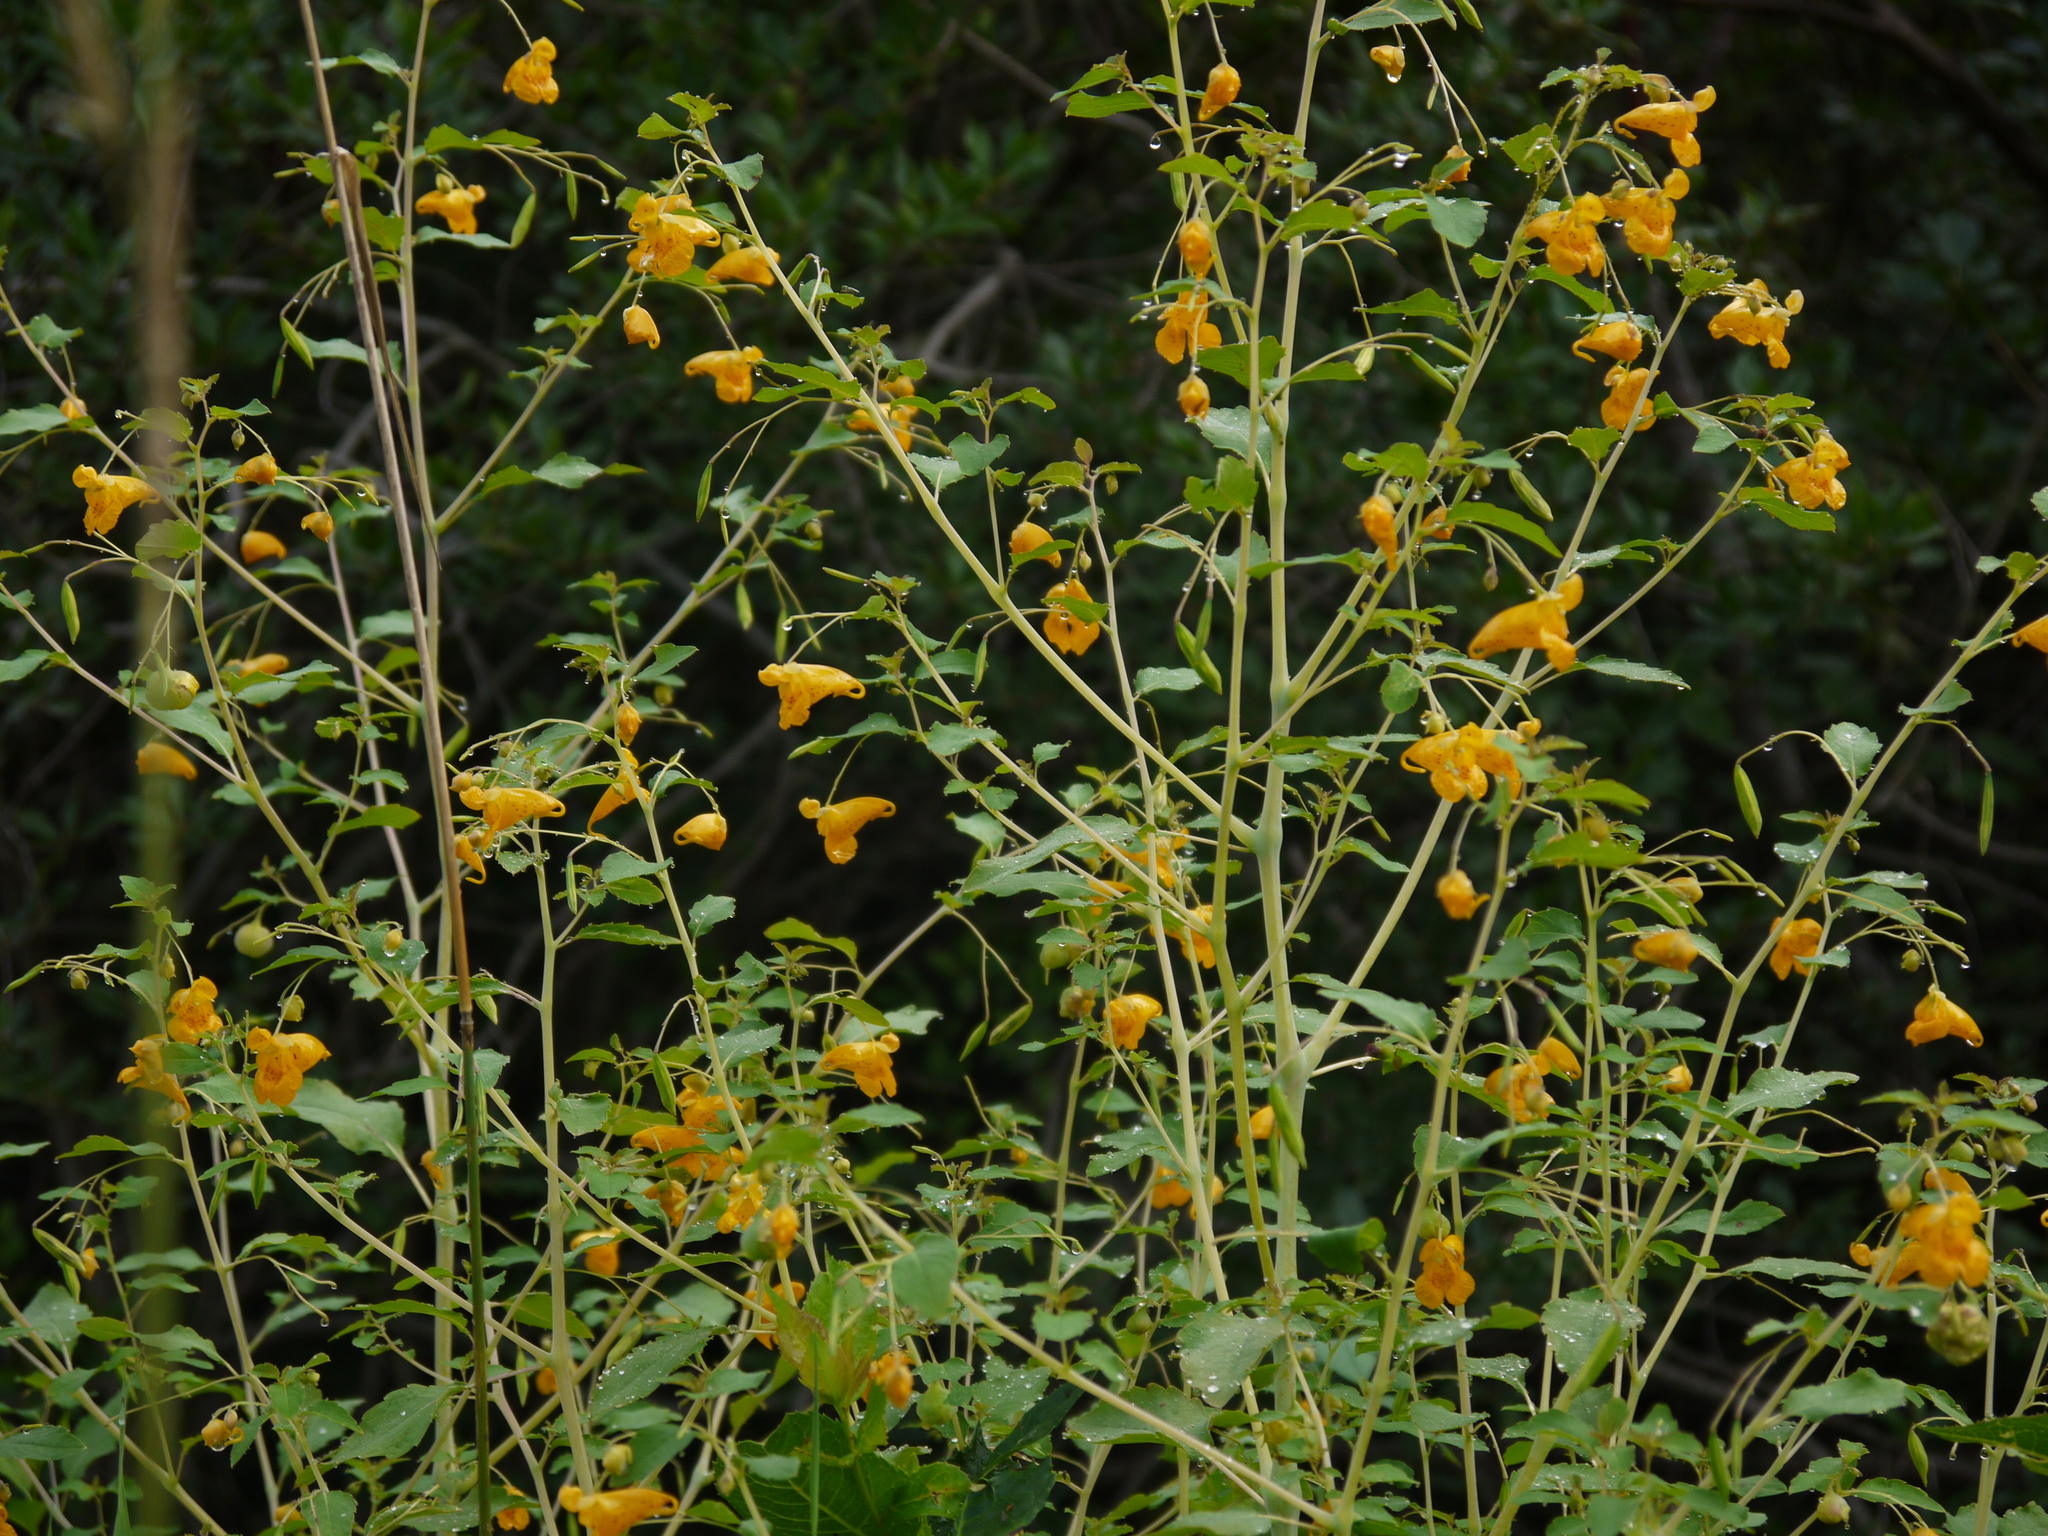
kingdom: Plantae
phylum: Tracheophyta
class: Magnoliopsida
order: Ericales
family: Balsaminaceae
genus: Impatiens
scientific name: Impatiens capensis
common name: Orange balsam
